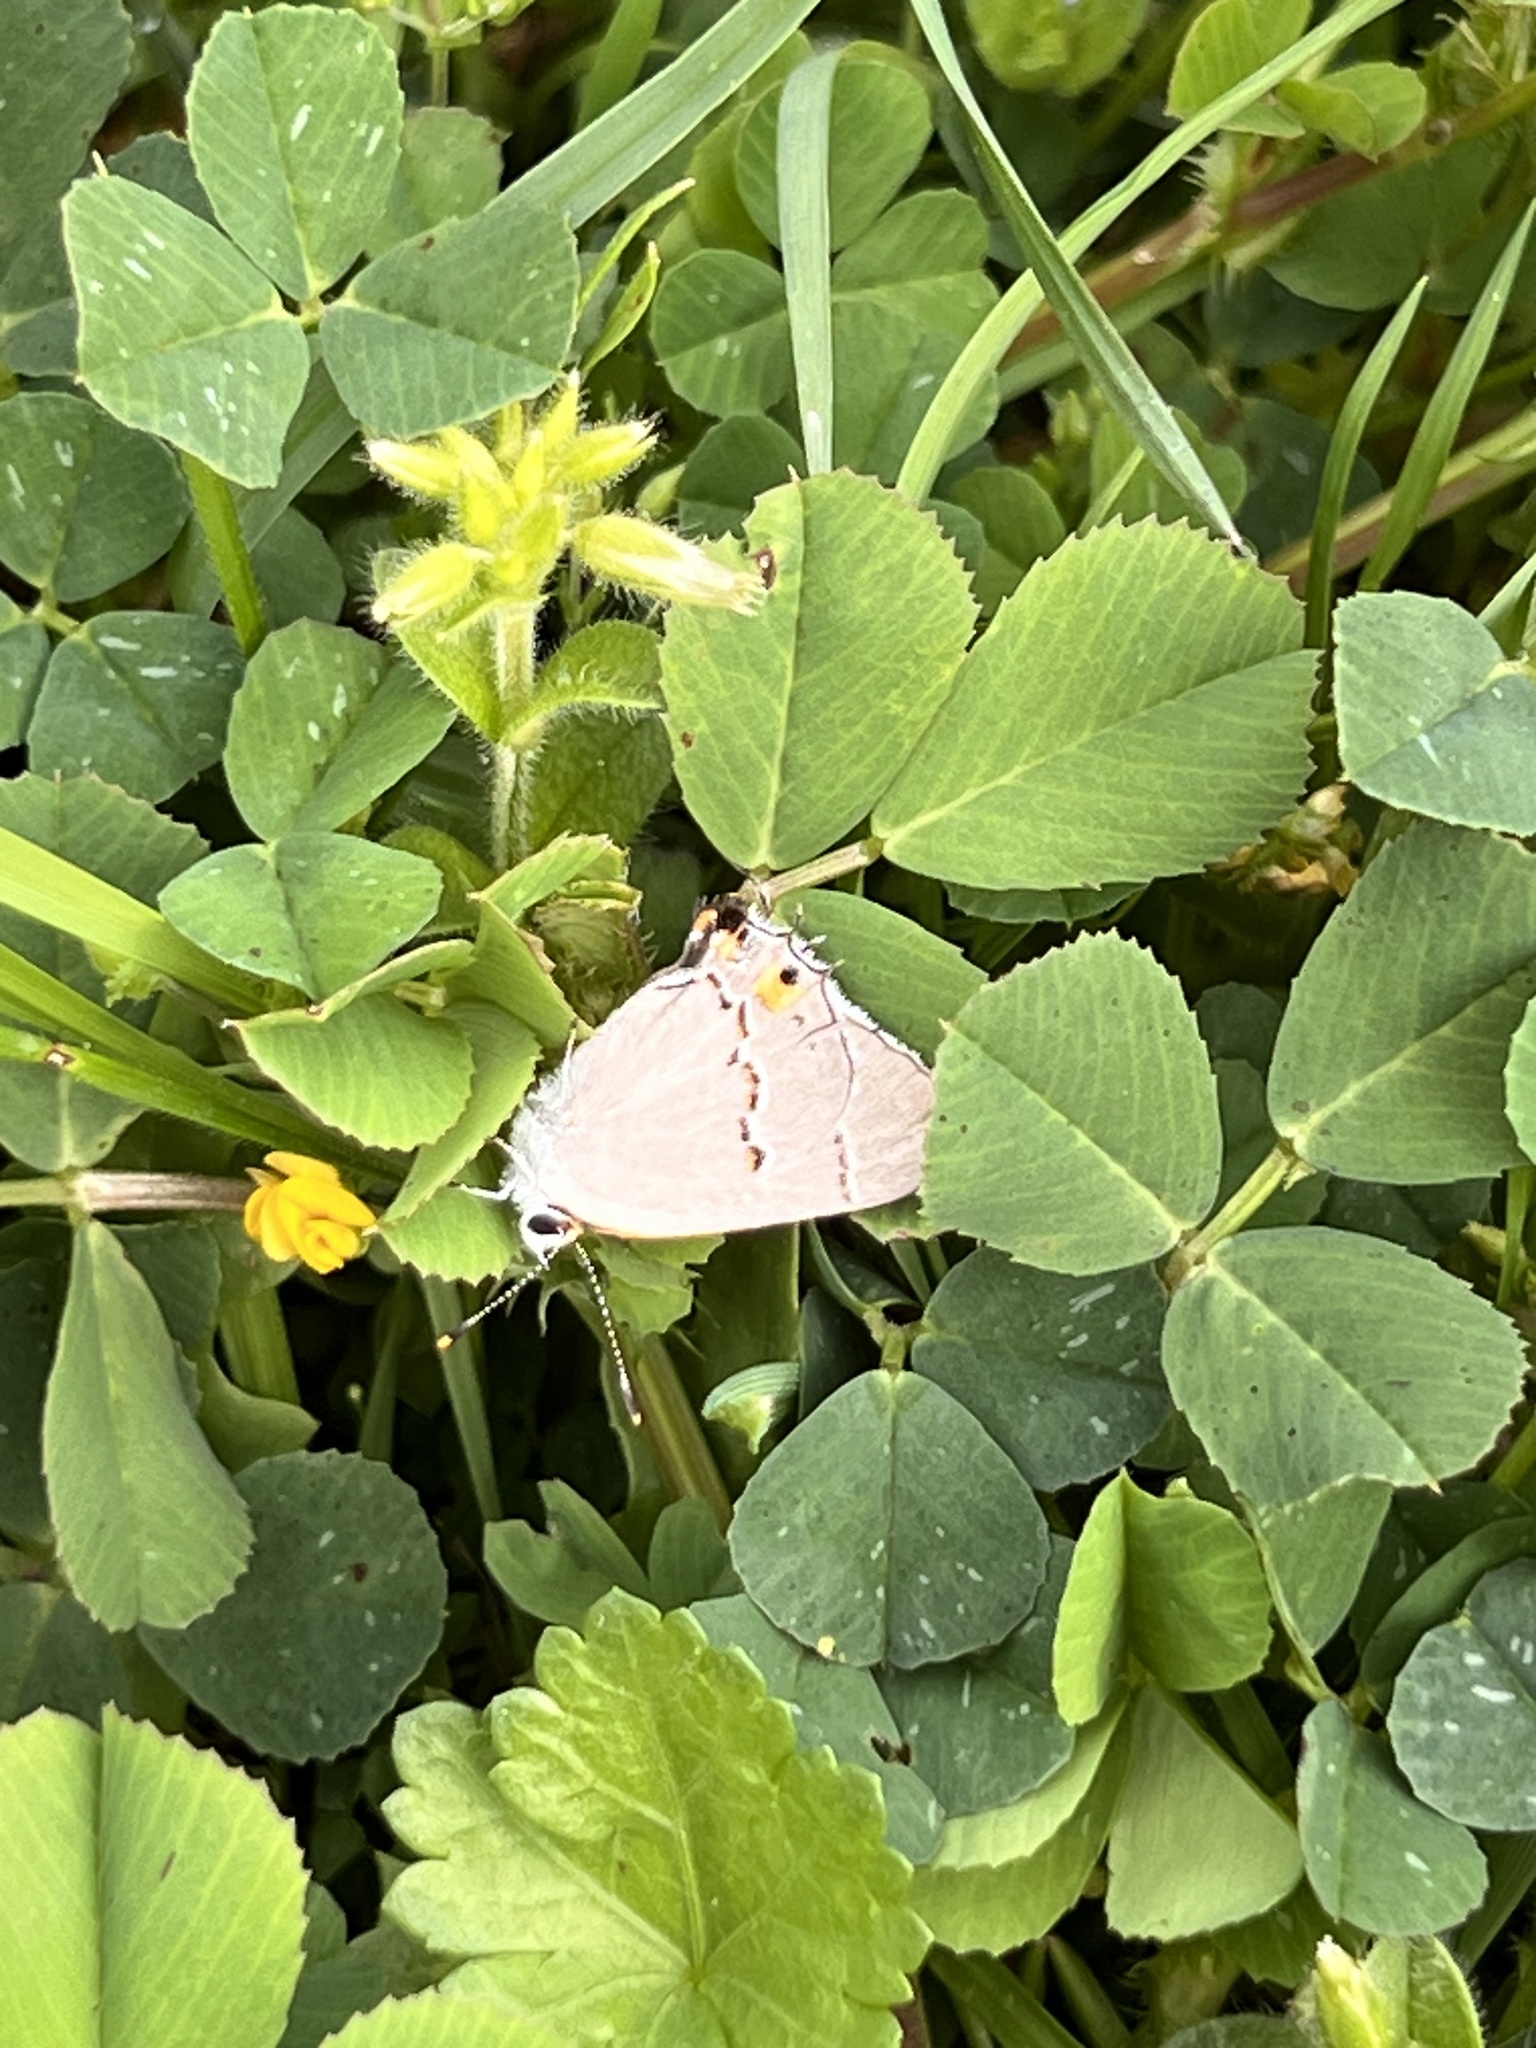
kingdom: Animalia
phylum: Arthropoda
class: Insecta
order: Lepidoptera
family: Lycaenidae
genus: Strymon
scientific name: Strymon melinus
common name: Gray hairstreak
